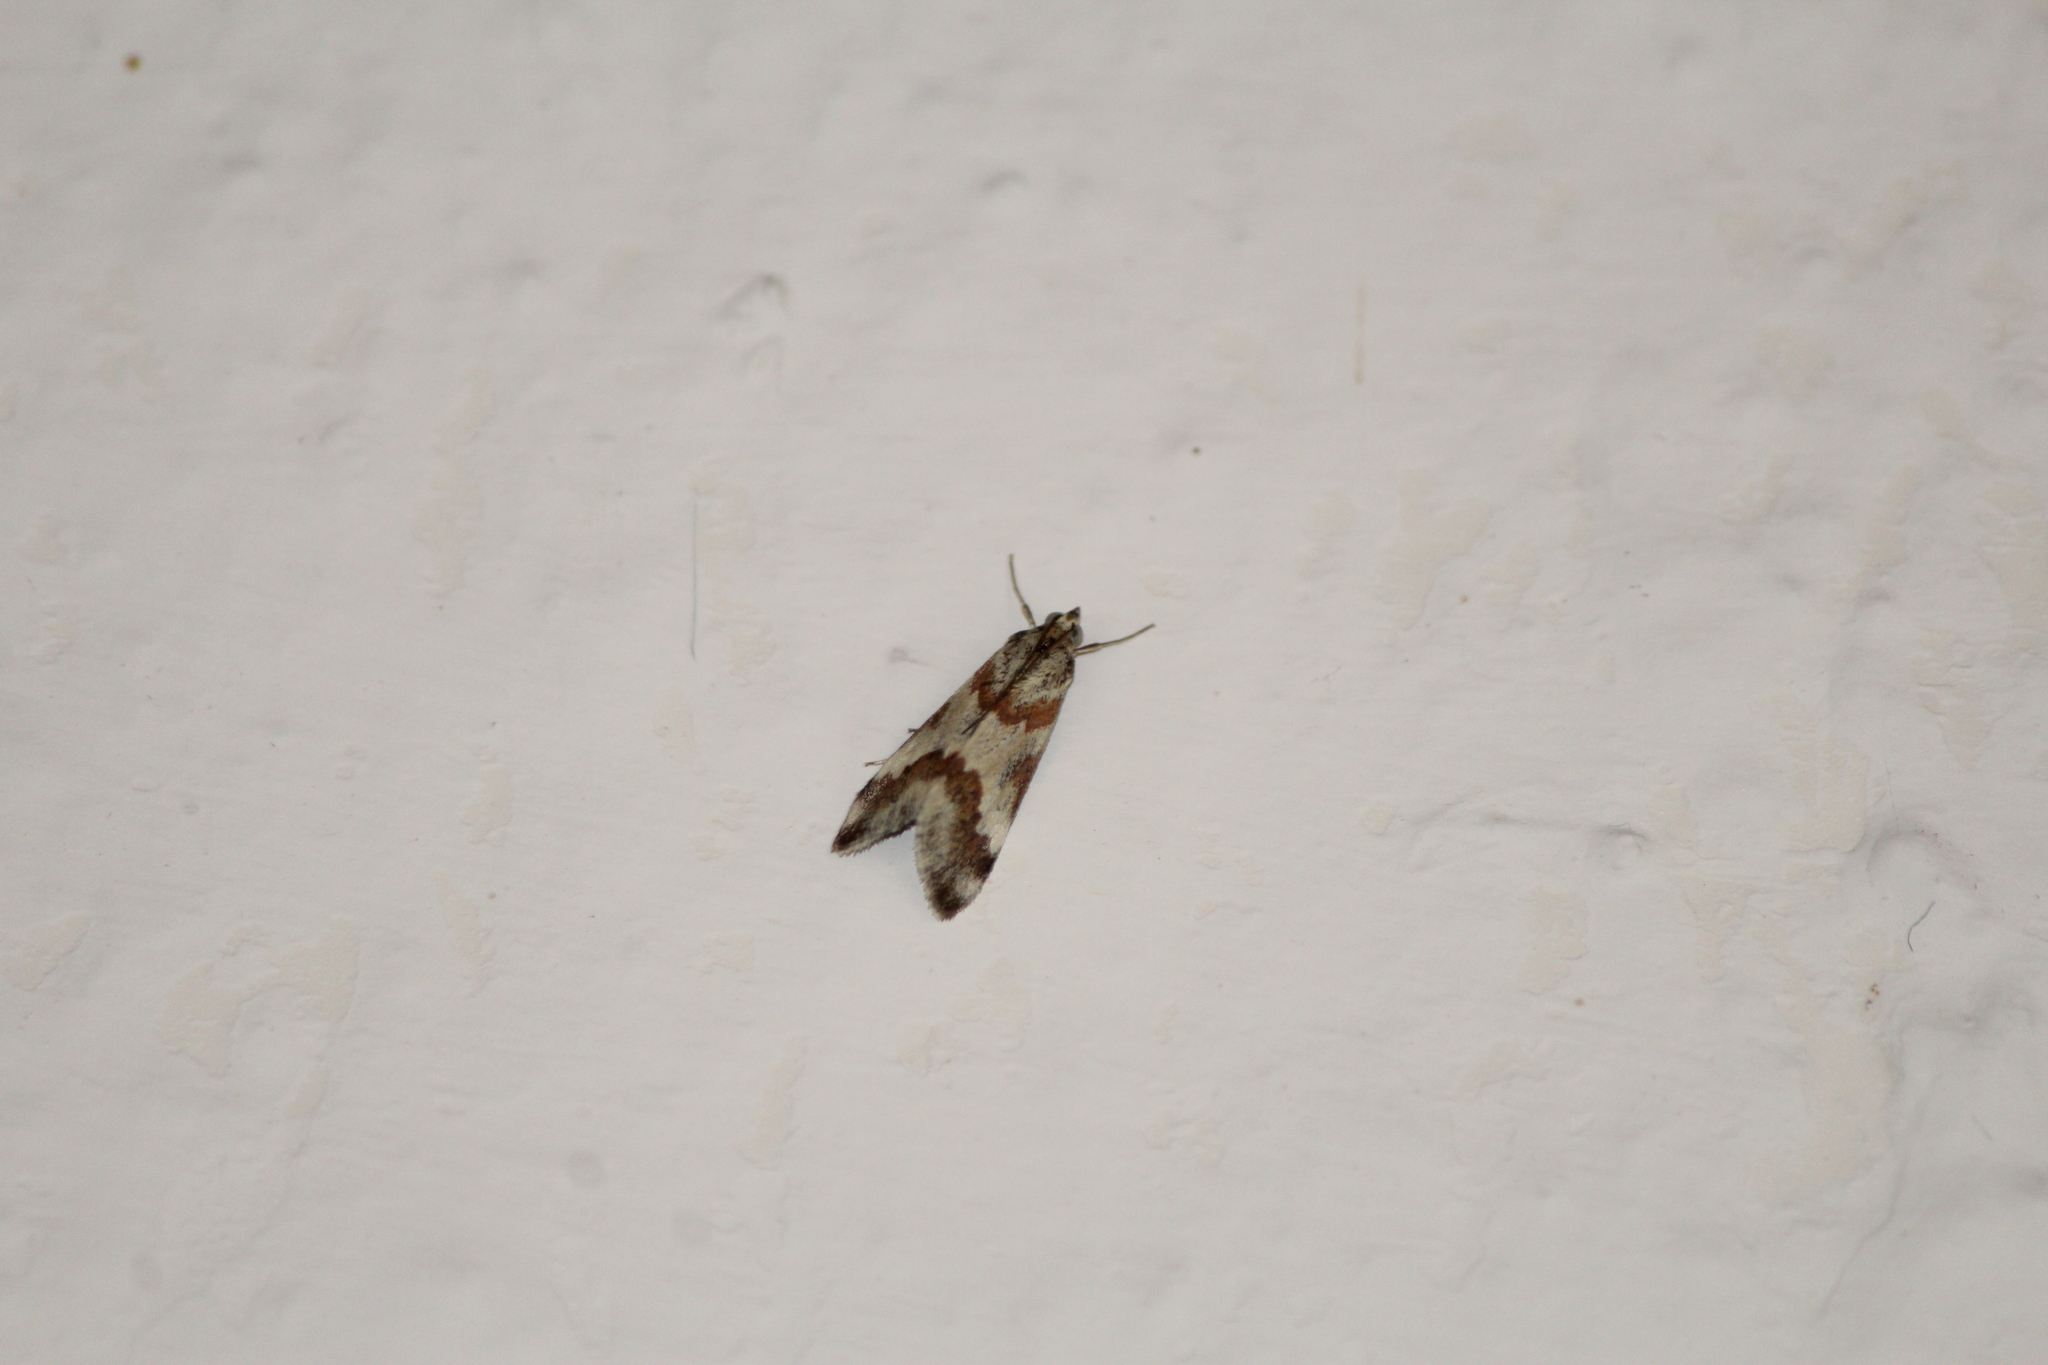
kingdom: Animalia
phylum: Arthropoda
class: Insecta
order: Lepidoptera
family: Crambidae
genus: Noctuelia
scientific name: Noctuelia Mimoschinia rufofascialis
